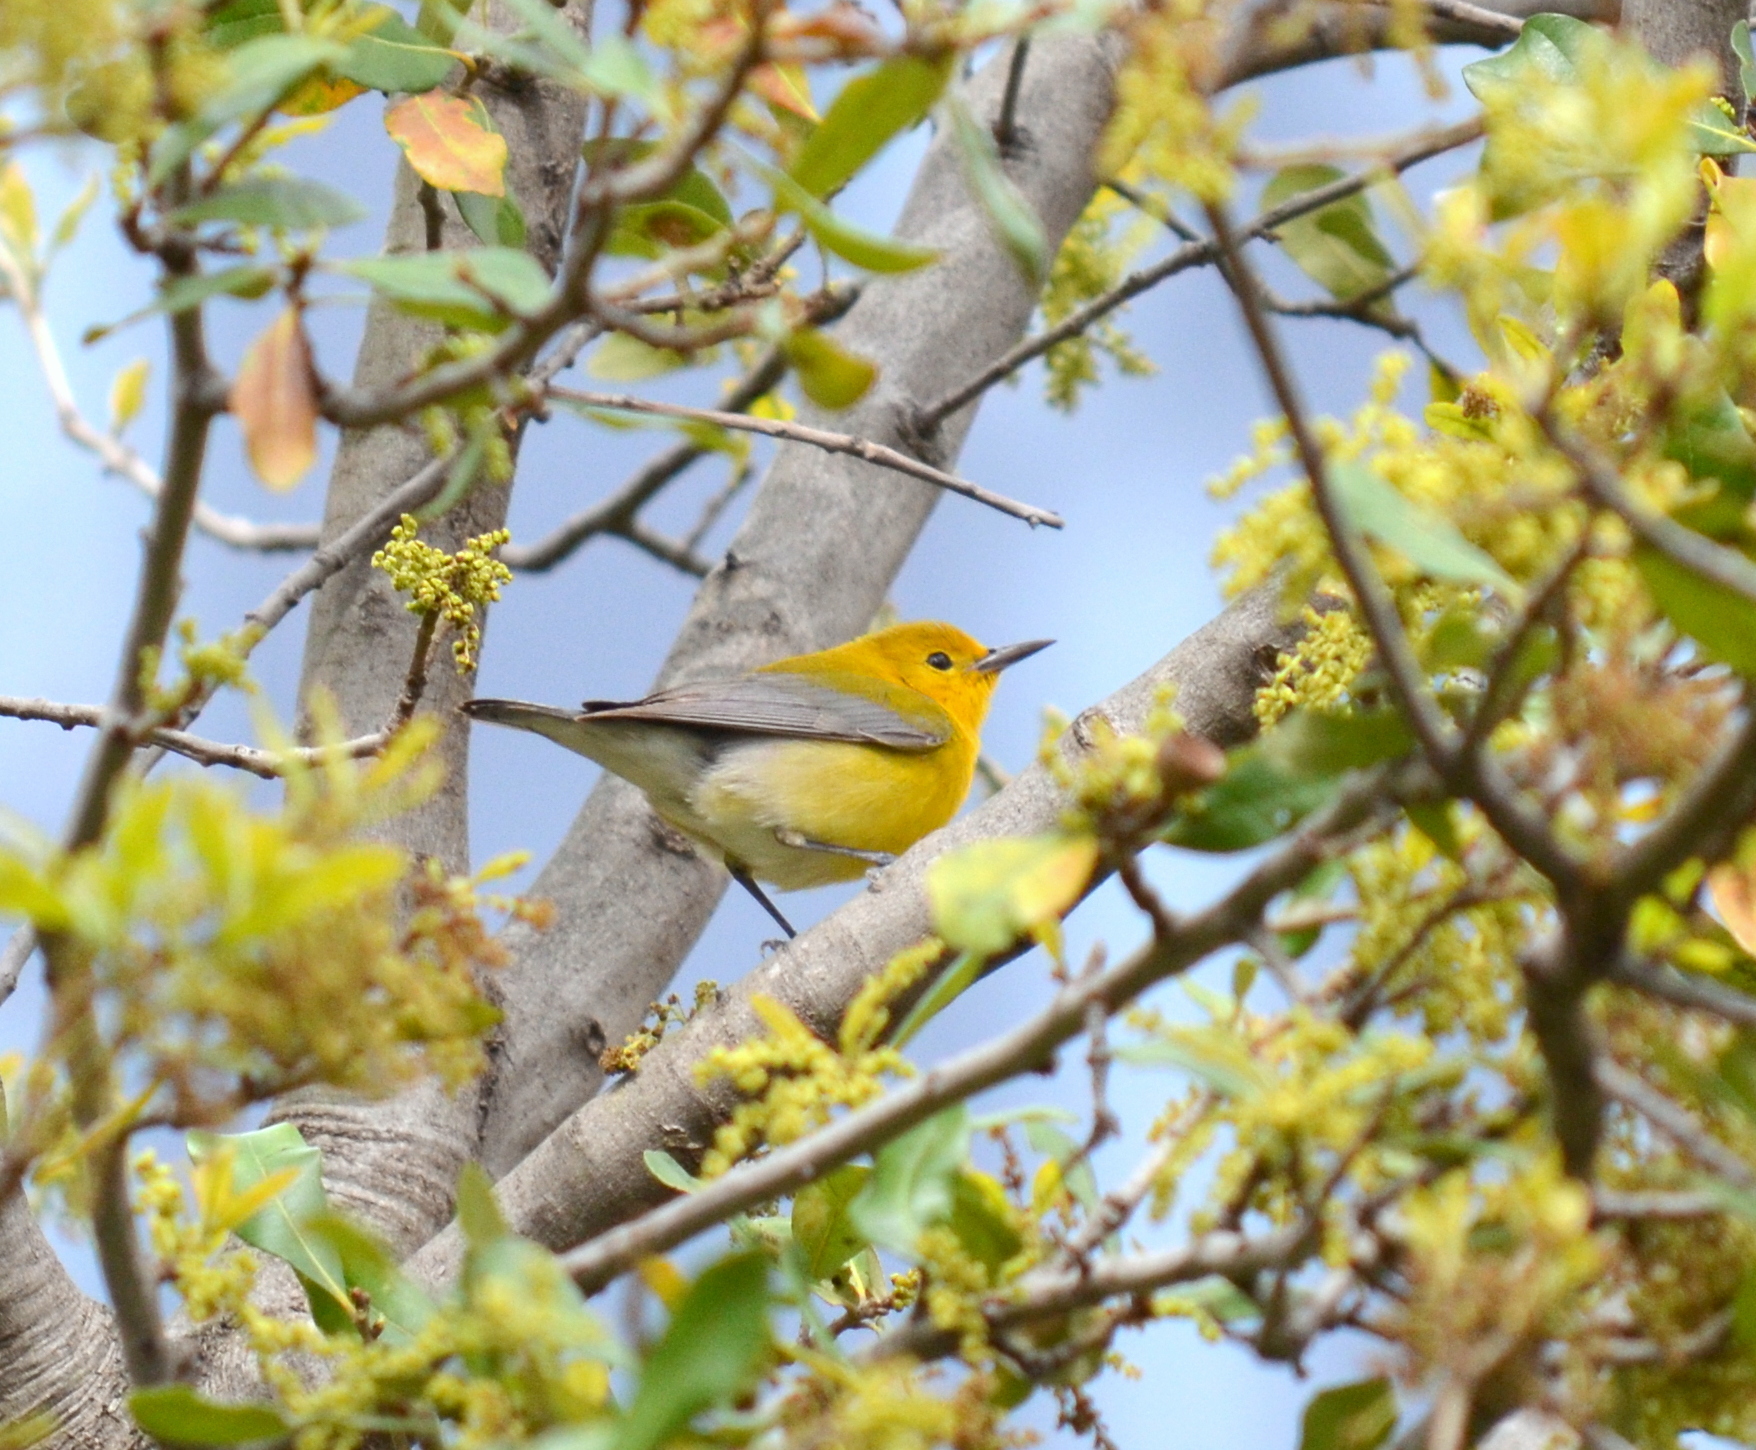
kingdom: Animalia
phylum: Chordata
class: Aves
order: Passeriformes
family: Parulidae
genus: Protonotaria
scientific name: Protonotaria citrea
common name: Prothonotary warbler
